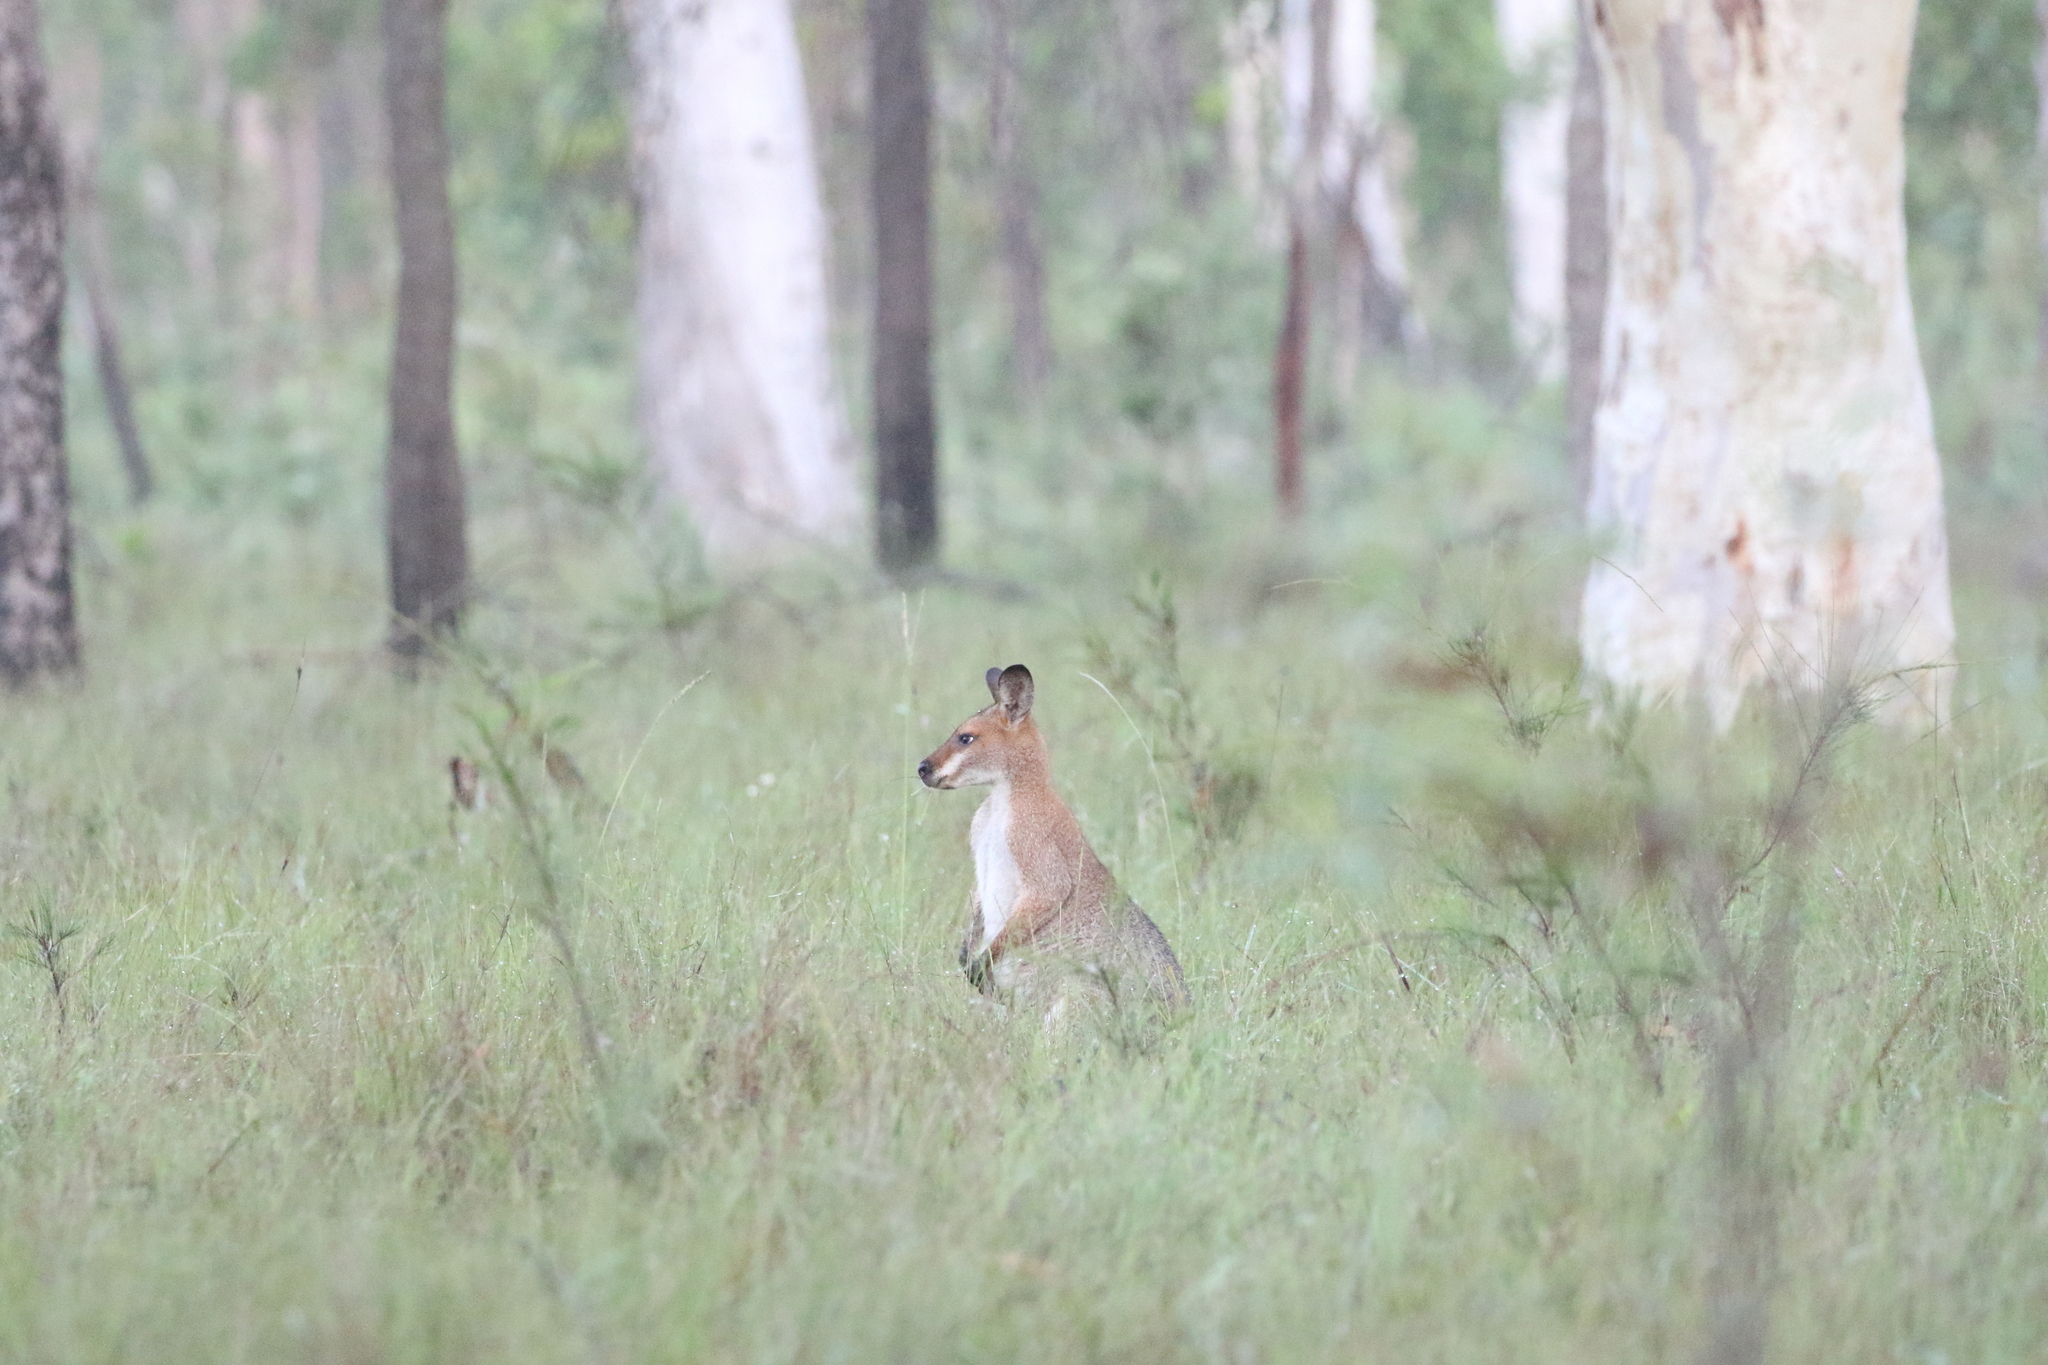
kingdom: Animalia
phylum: Chordata
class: Mammalia
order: Diprotodontia
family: Macropodidae
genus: Notamacropus
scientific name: Notamacropus rufogriseus
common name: Red-necked wallaby
